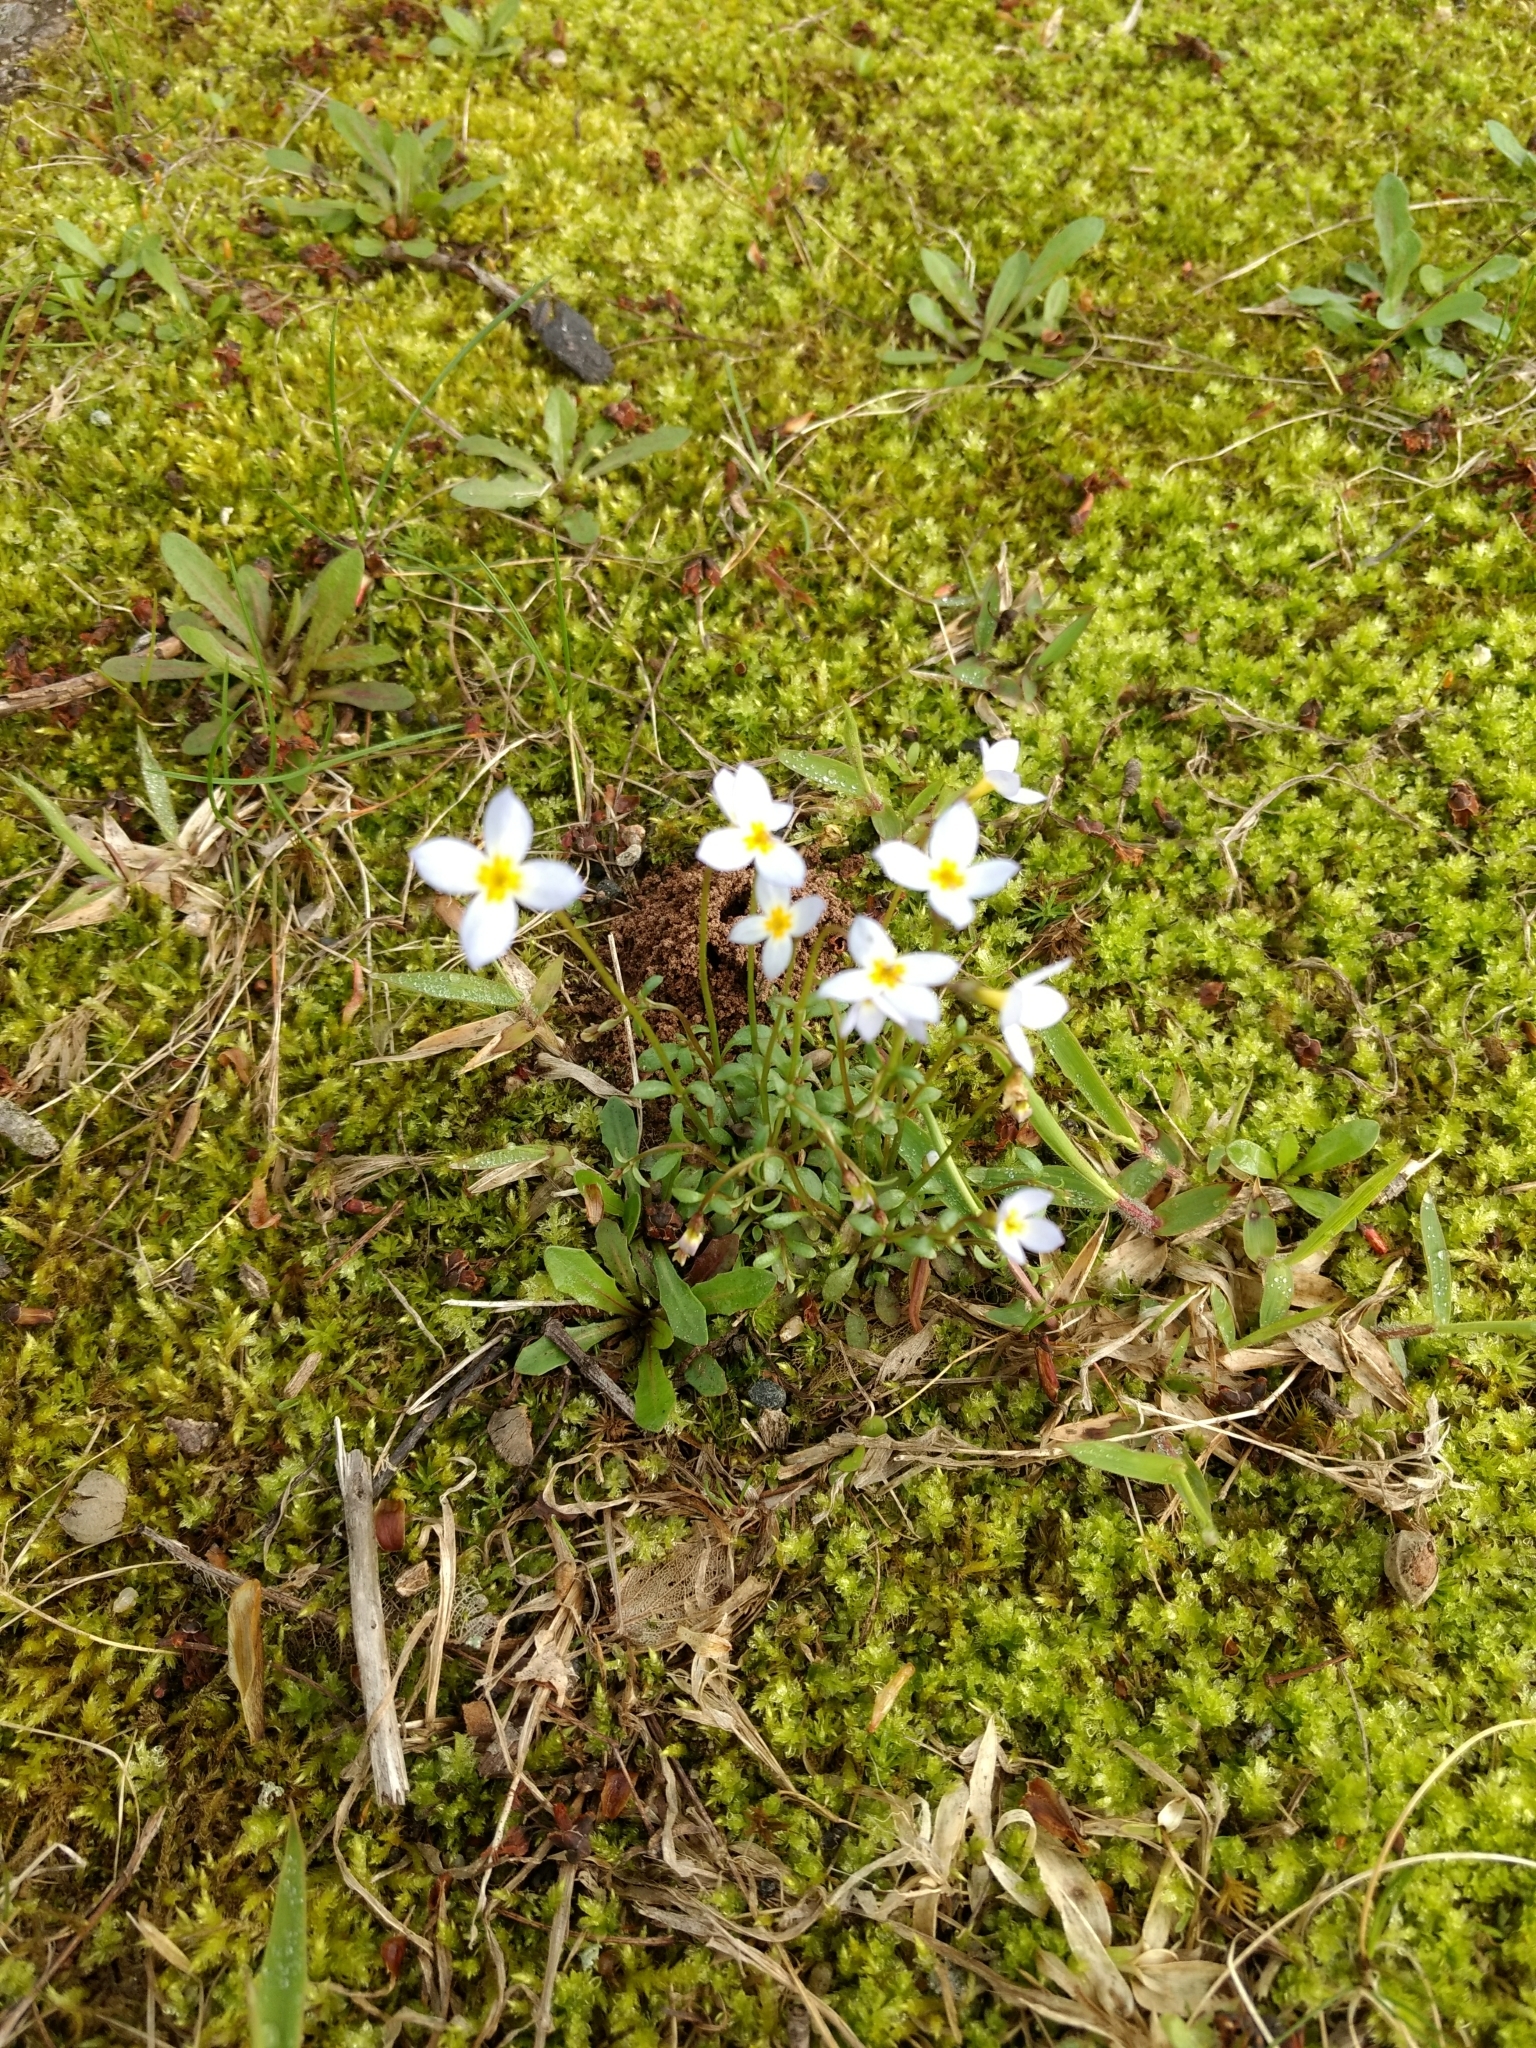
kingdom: Plantae
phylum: Tracheophyta
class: Magnoliopsida
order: Gentianales
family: Rubiaceae
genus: Houstonia
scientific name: Houstonia caerulea
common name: Bluets
